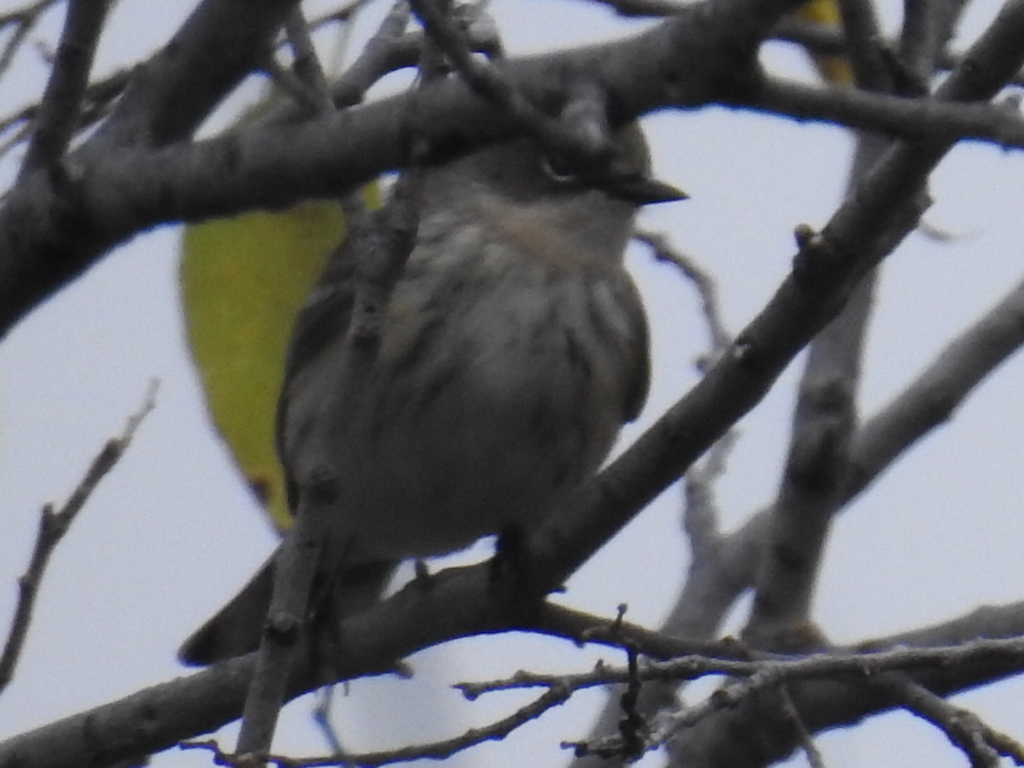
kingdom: Animalia
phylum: Chordata
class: Aves
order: Passeriformes
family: Parulidae
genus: Setophaga
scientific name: Setophaga coronata
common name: Myrtle warbler
